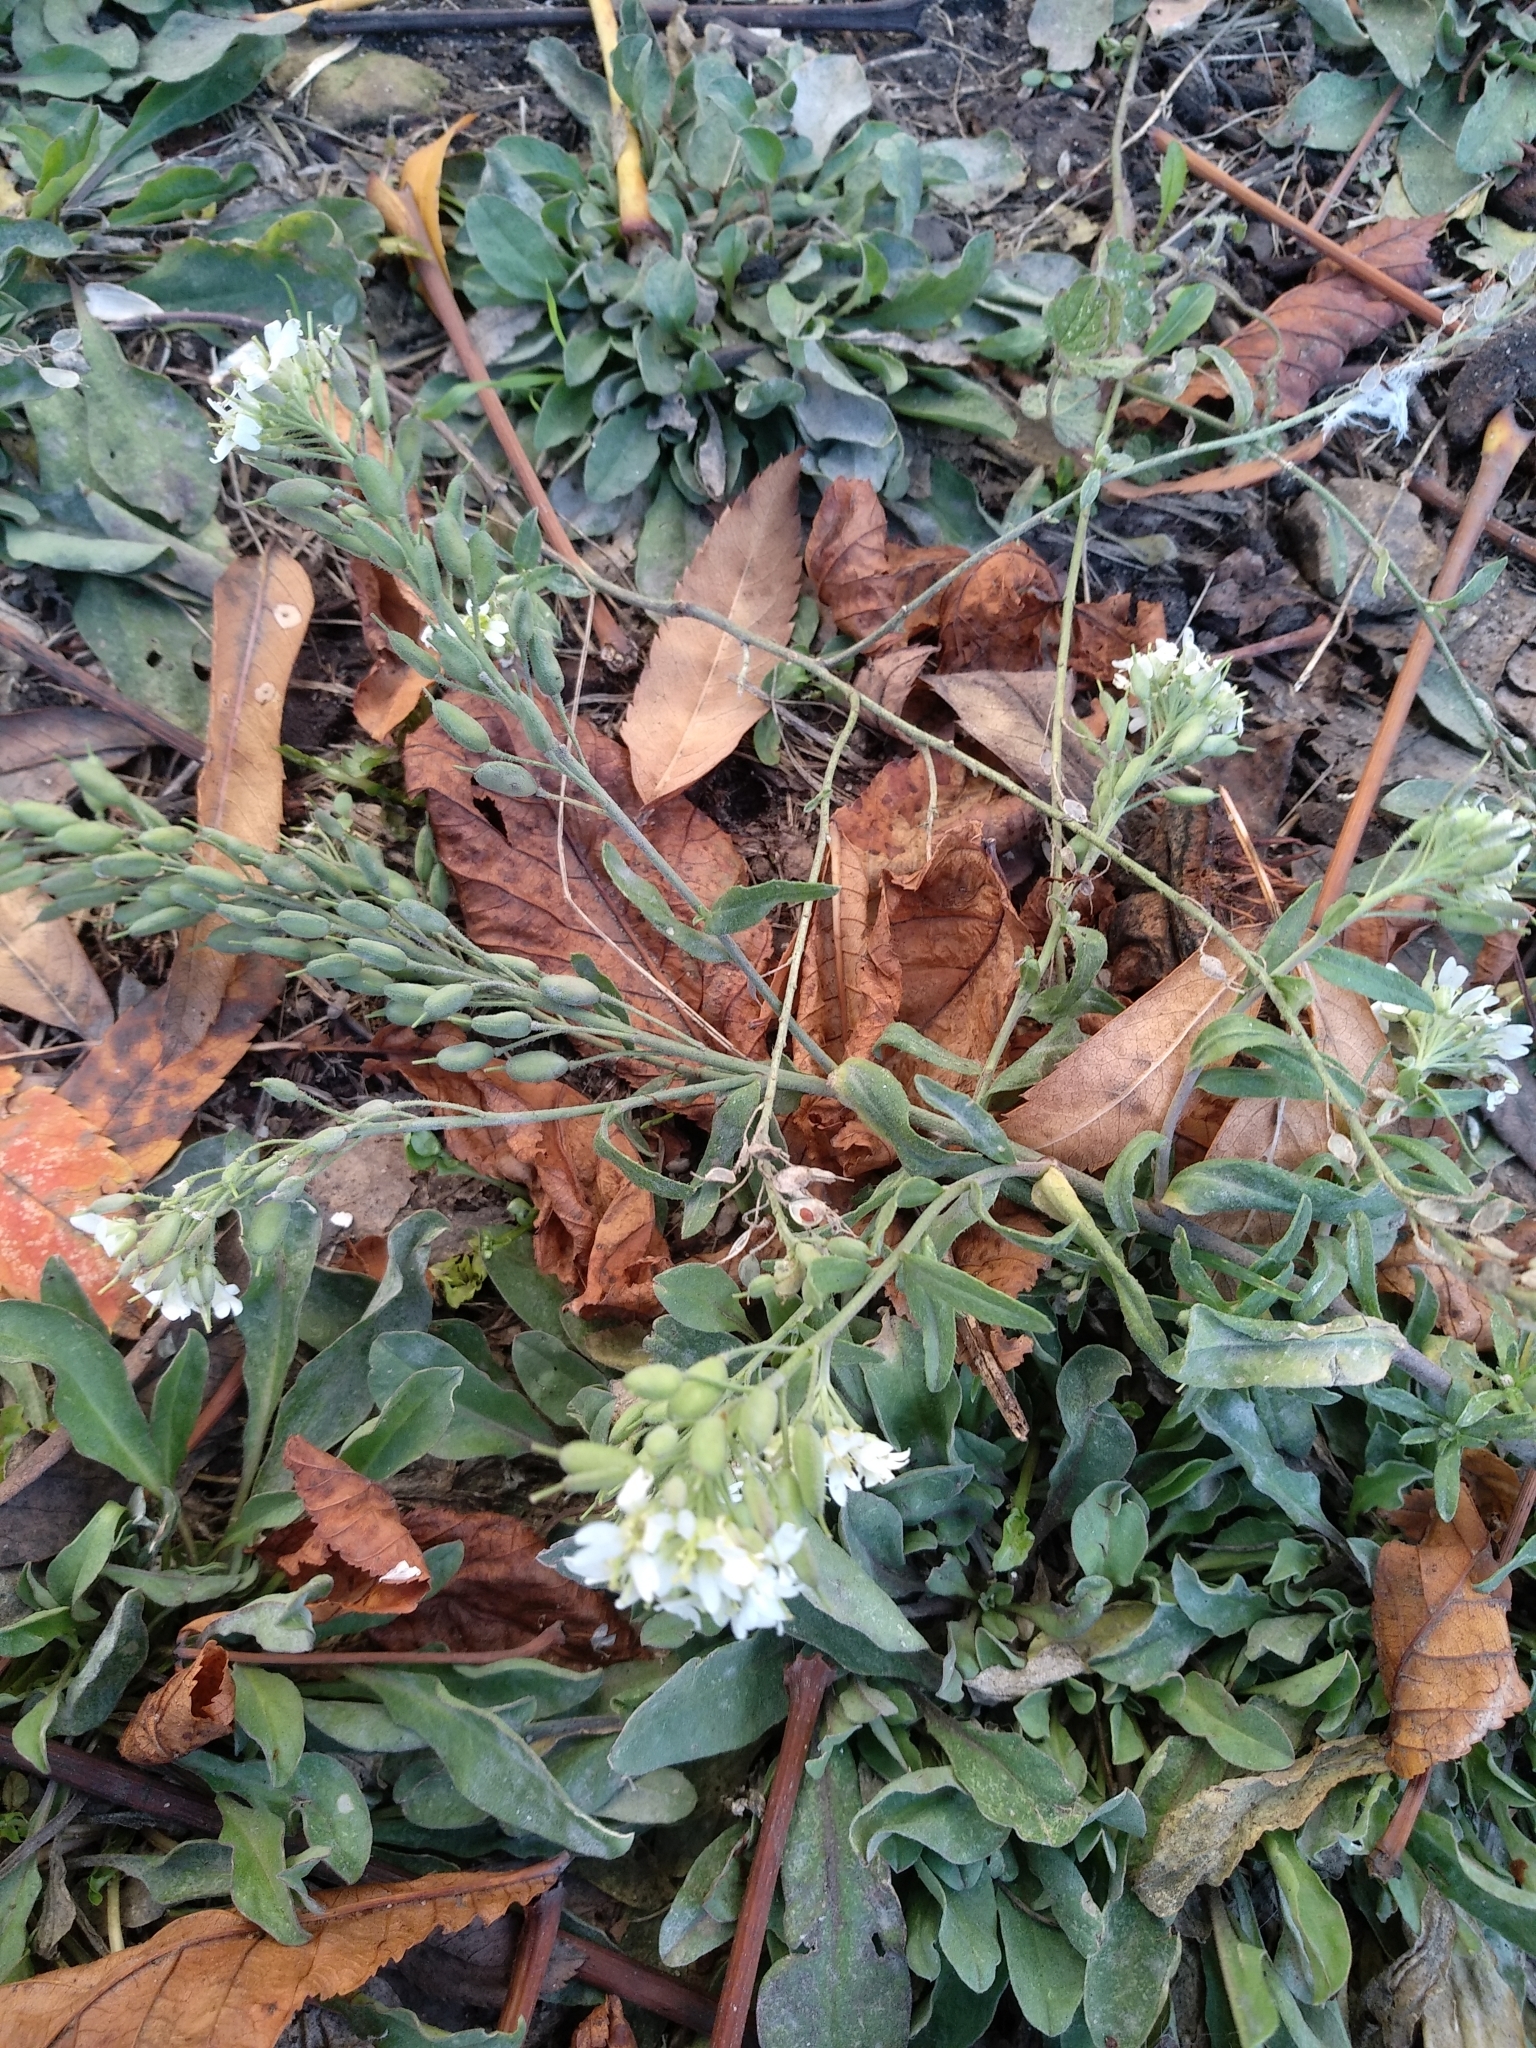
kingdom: Plantae
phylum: Tracheophyta
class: Magnoliopsida
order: Brassicales
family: Brassicaceae
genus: Berteroa
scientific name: Berteroa incana
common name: Hoary alison
